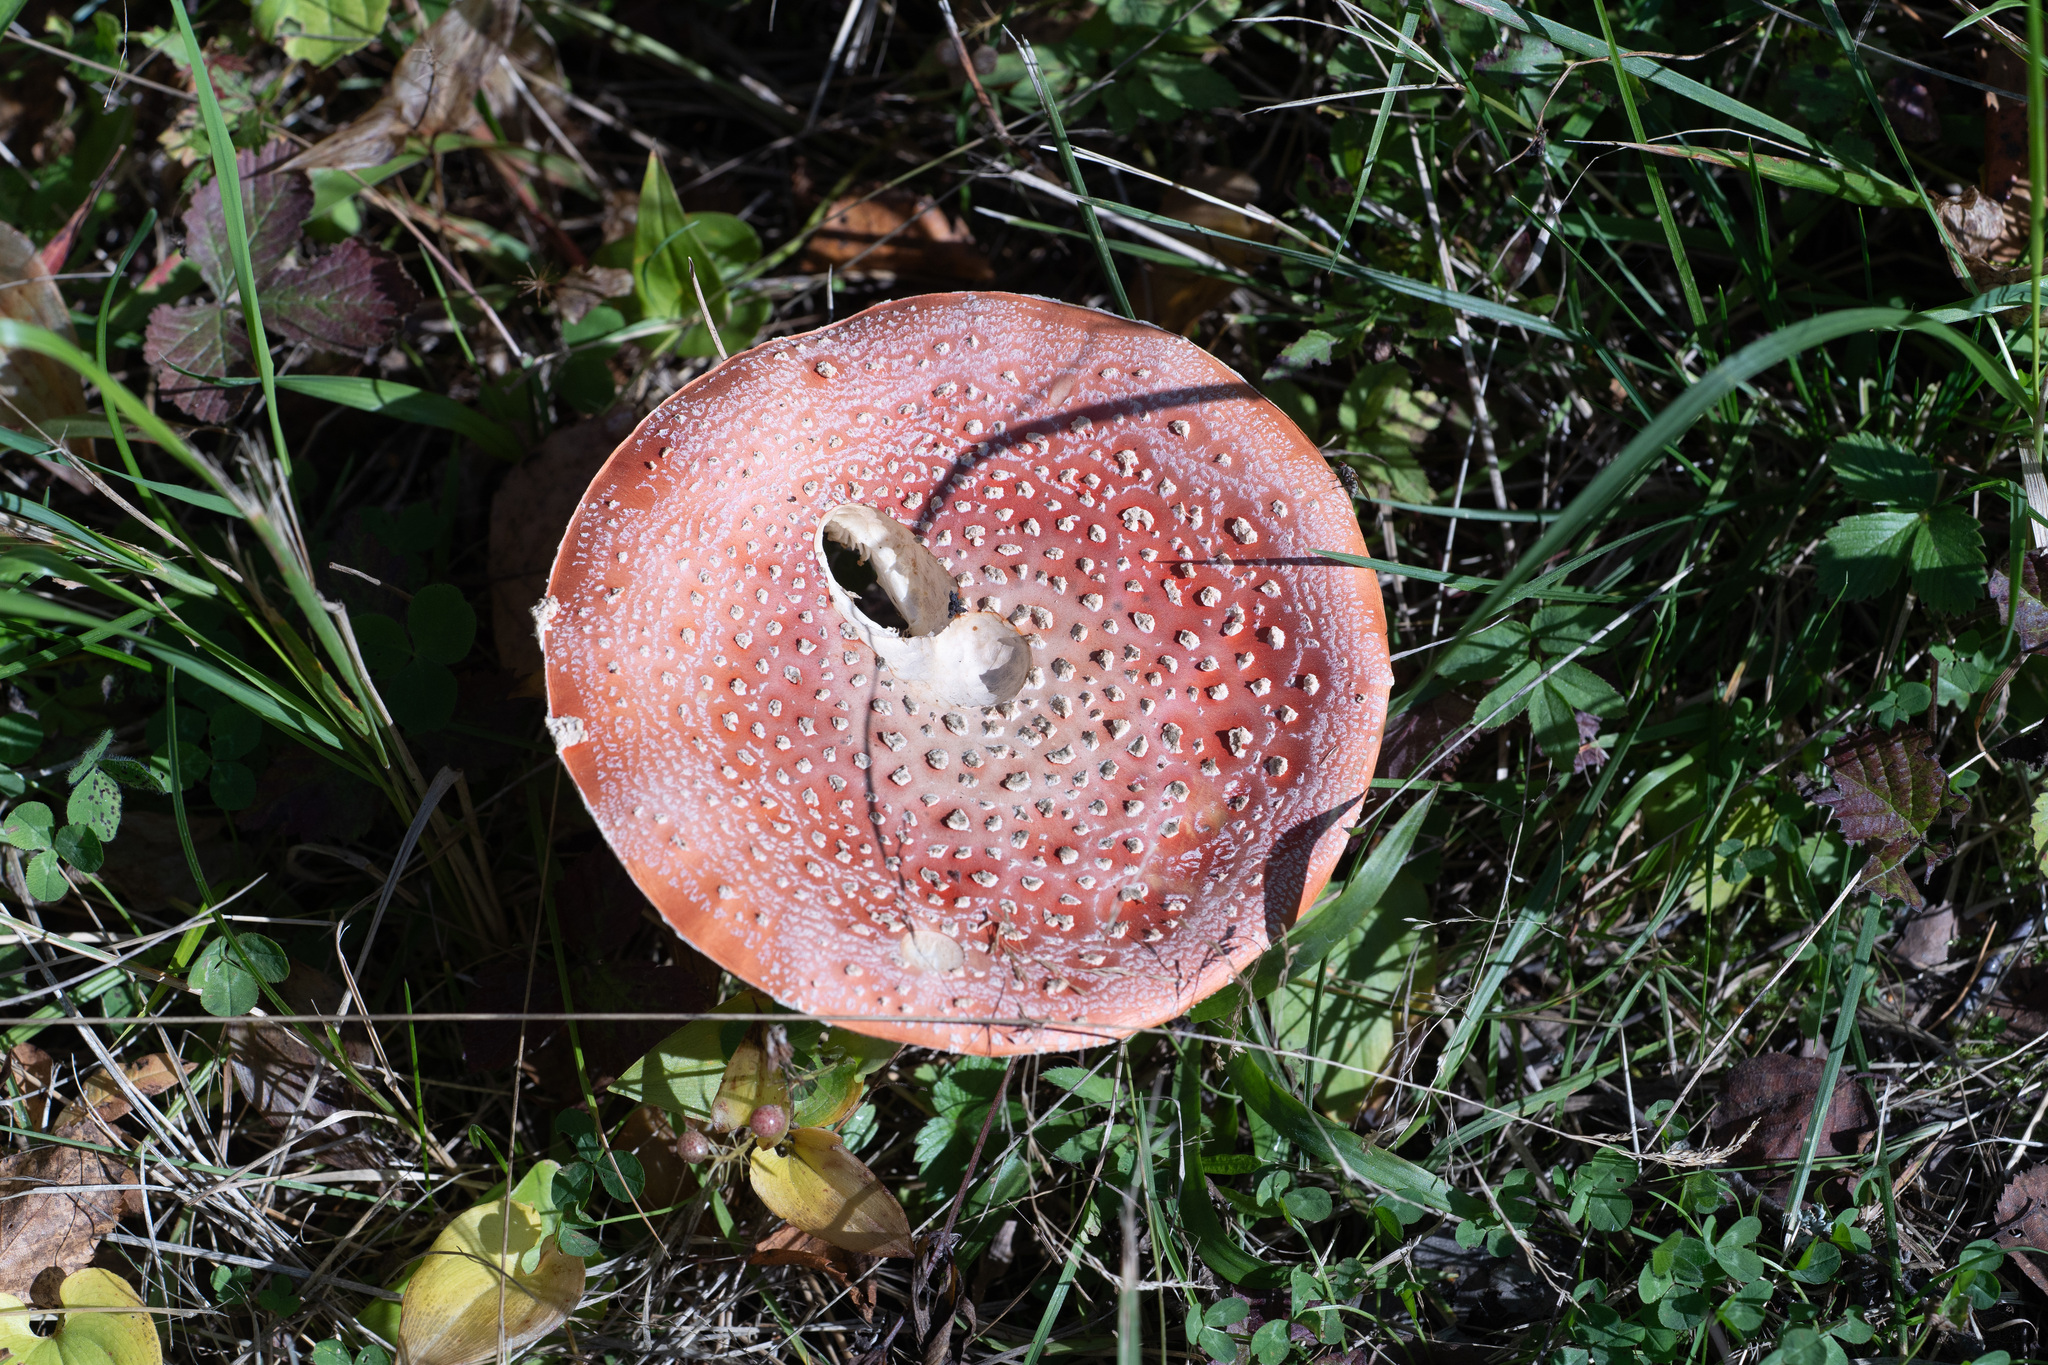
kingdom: Fungi
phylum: Basidiomycota
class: Agaricomycetes
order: Agaricales
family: Amanitaceae
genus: Amanita
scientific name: Amanita muscaria
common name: Fly agaric
